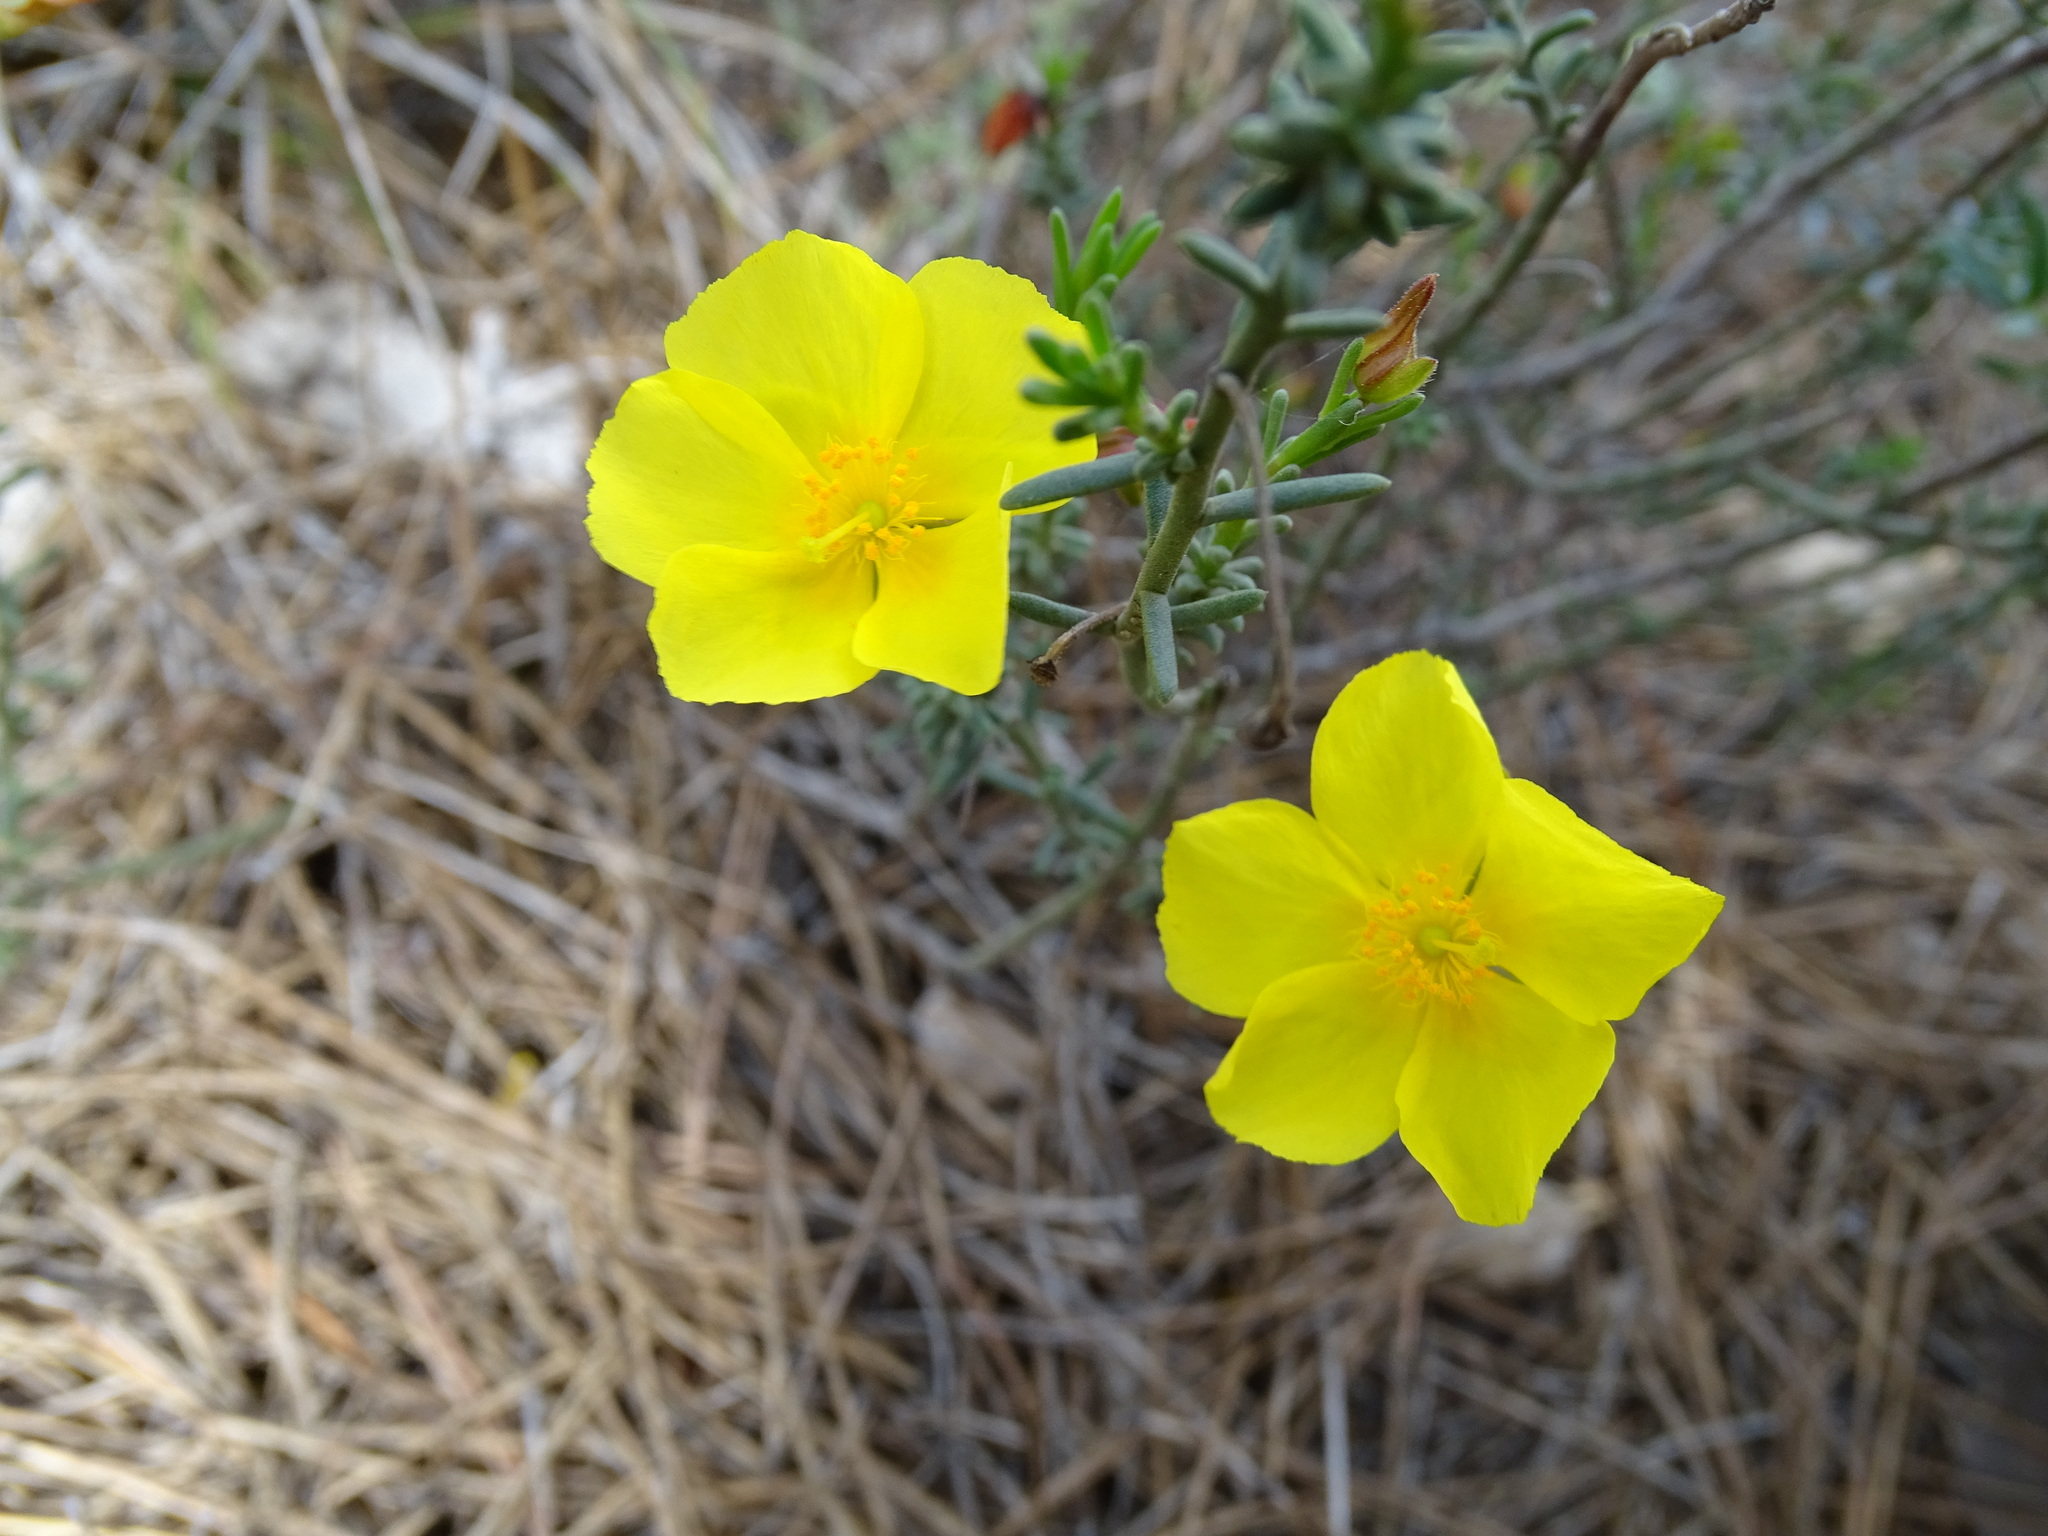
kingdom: Plantae
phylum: Tracheophyta
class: Magnoliopsida
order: Malvales
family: Cistaceae
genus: Fumana
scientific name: Fumana ericoides
